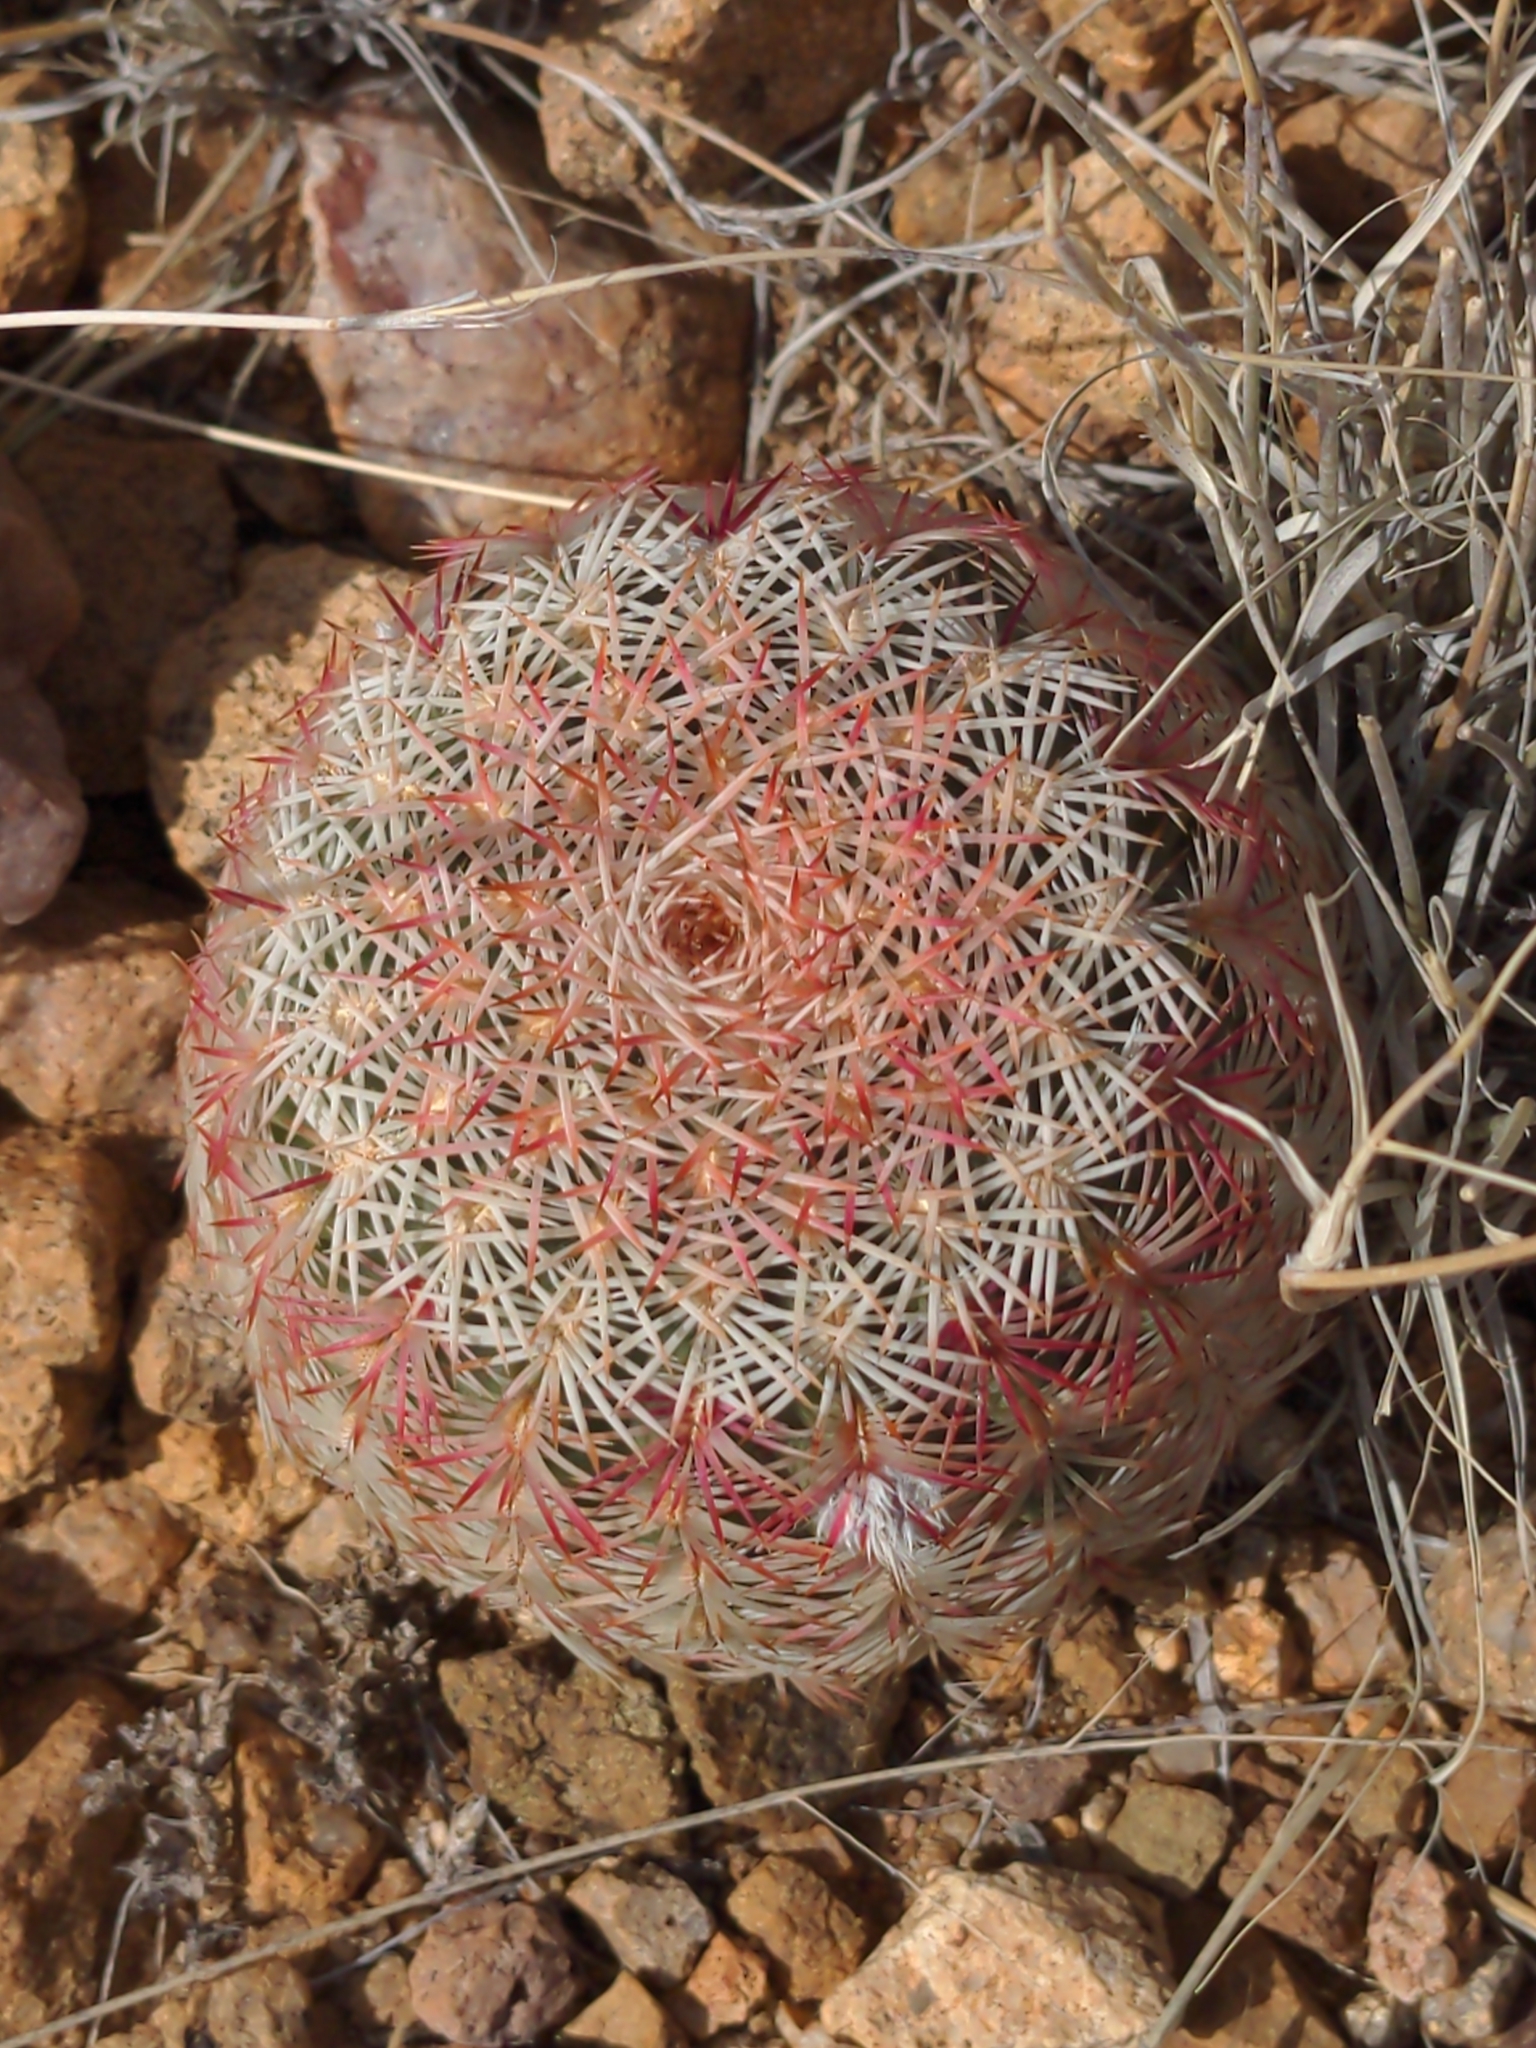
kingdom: Plantae
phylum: Tracheophyta
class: Magnoliopsida
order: Caryophyllales
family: Cactaceae
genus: Echinocereus
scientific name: Echinocereus rigidissimus
